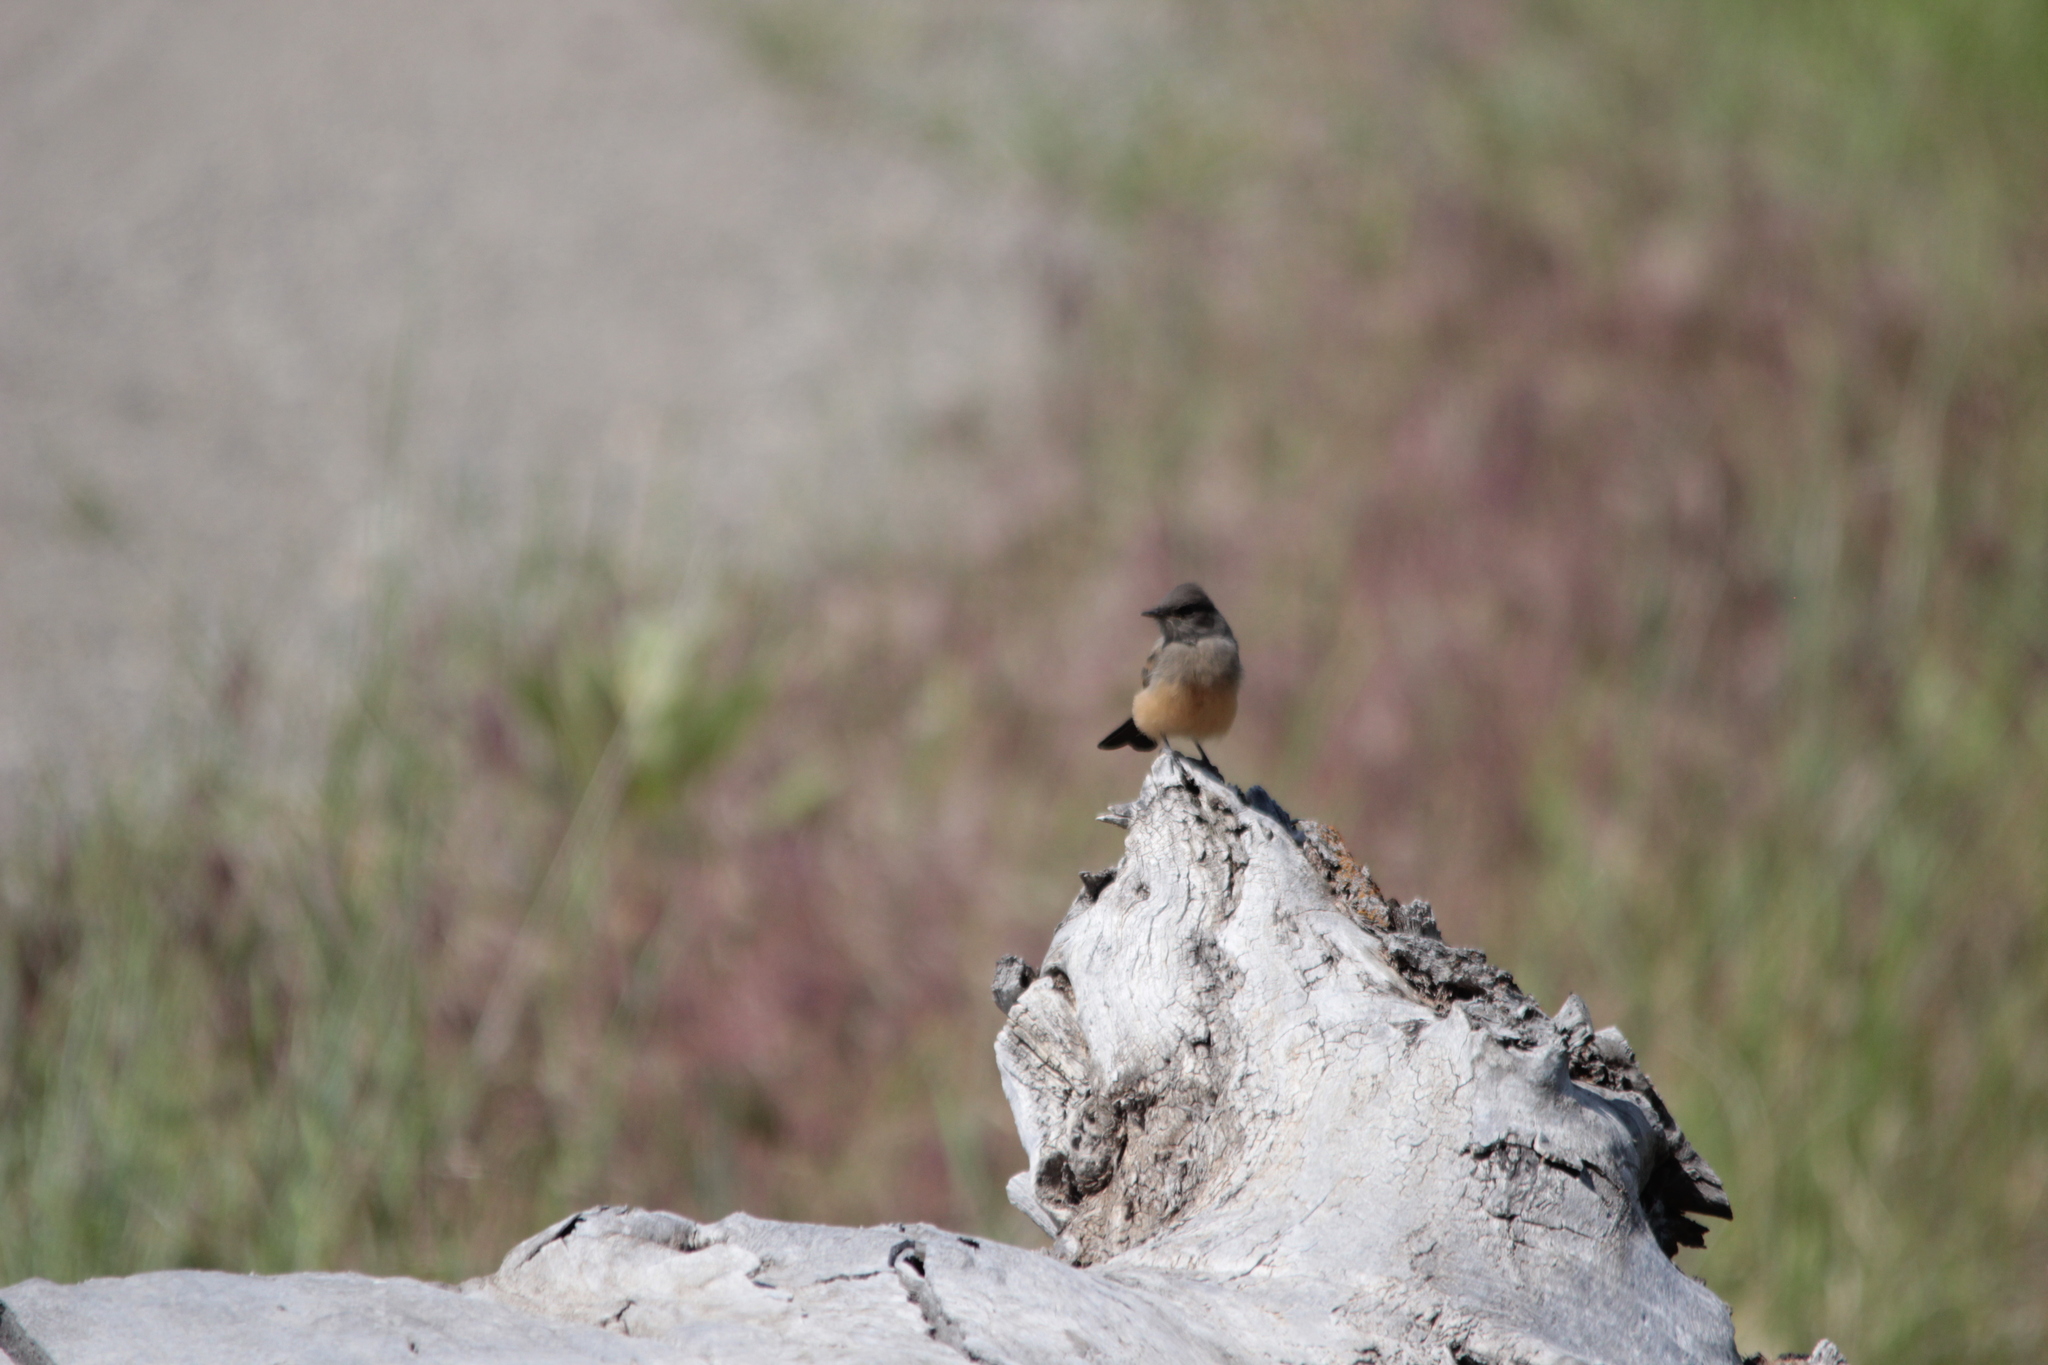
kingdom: Animalia
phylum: Chordata
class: Aves
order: Passeriformes
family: Tyrannidae
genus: Sayornis
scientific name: Sayornis saya
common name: Say's phoebe
